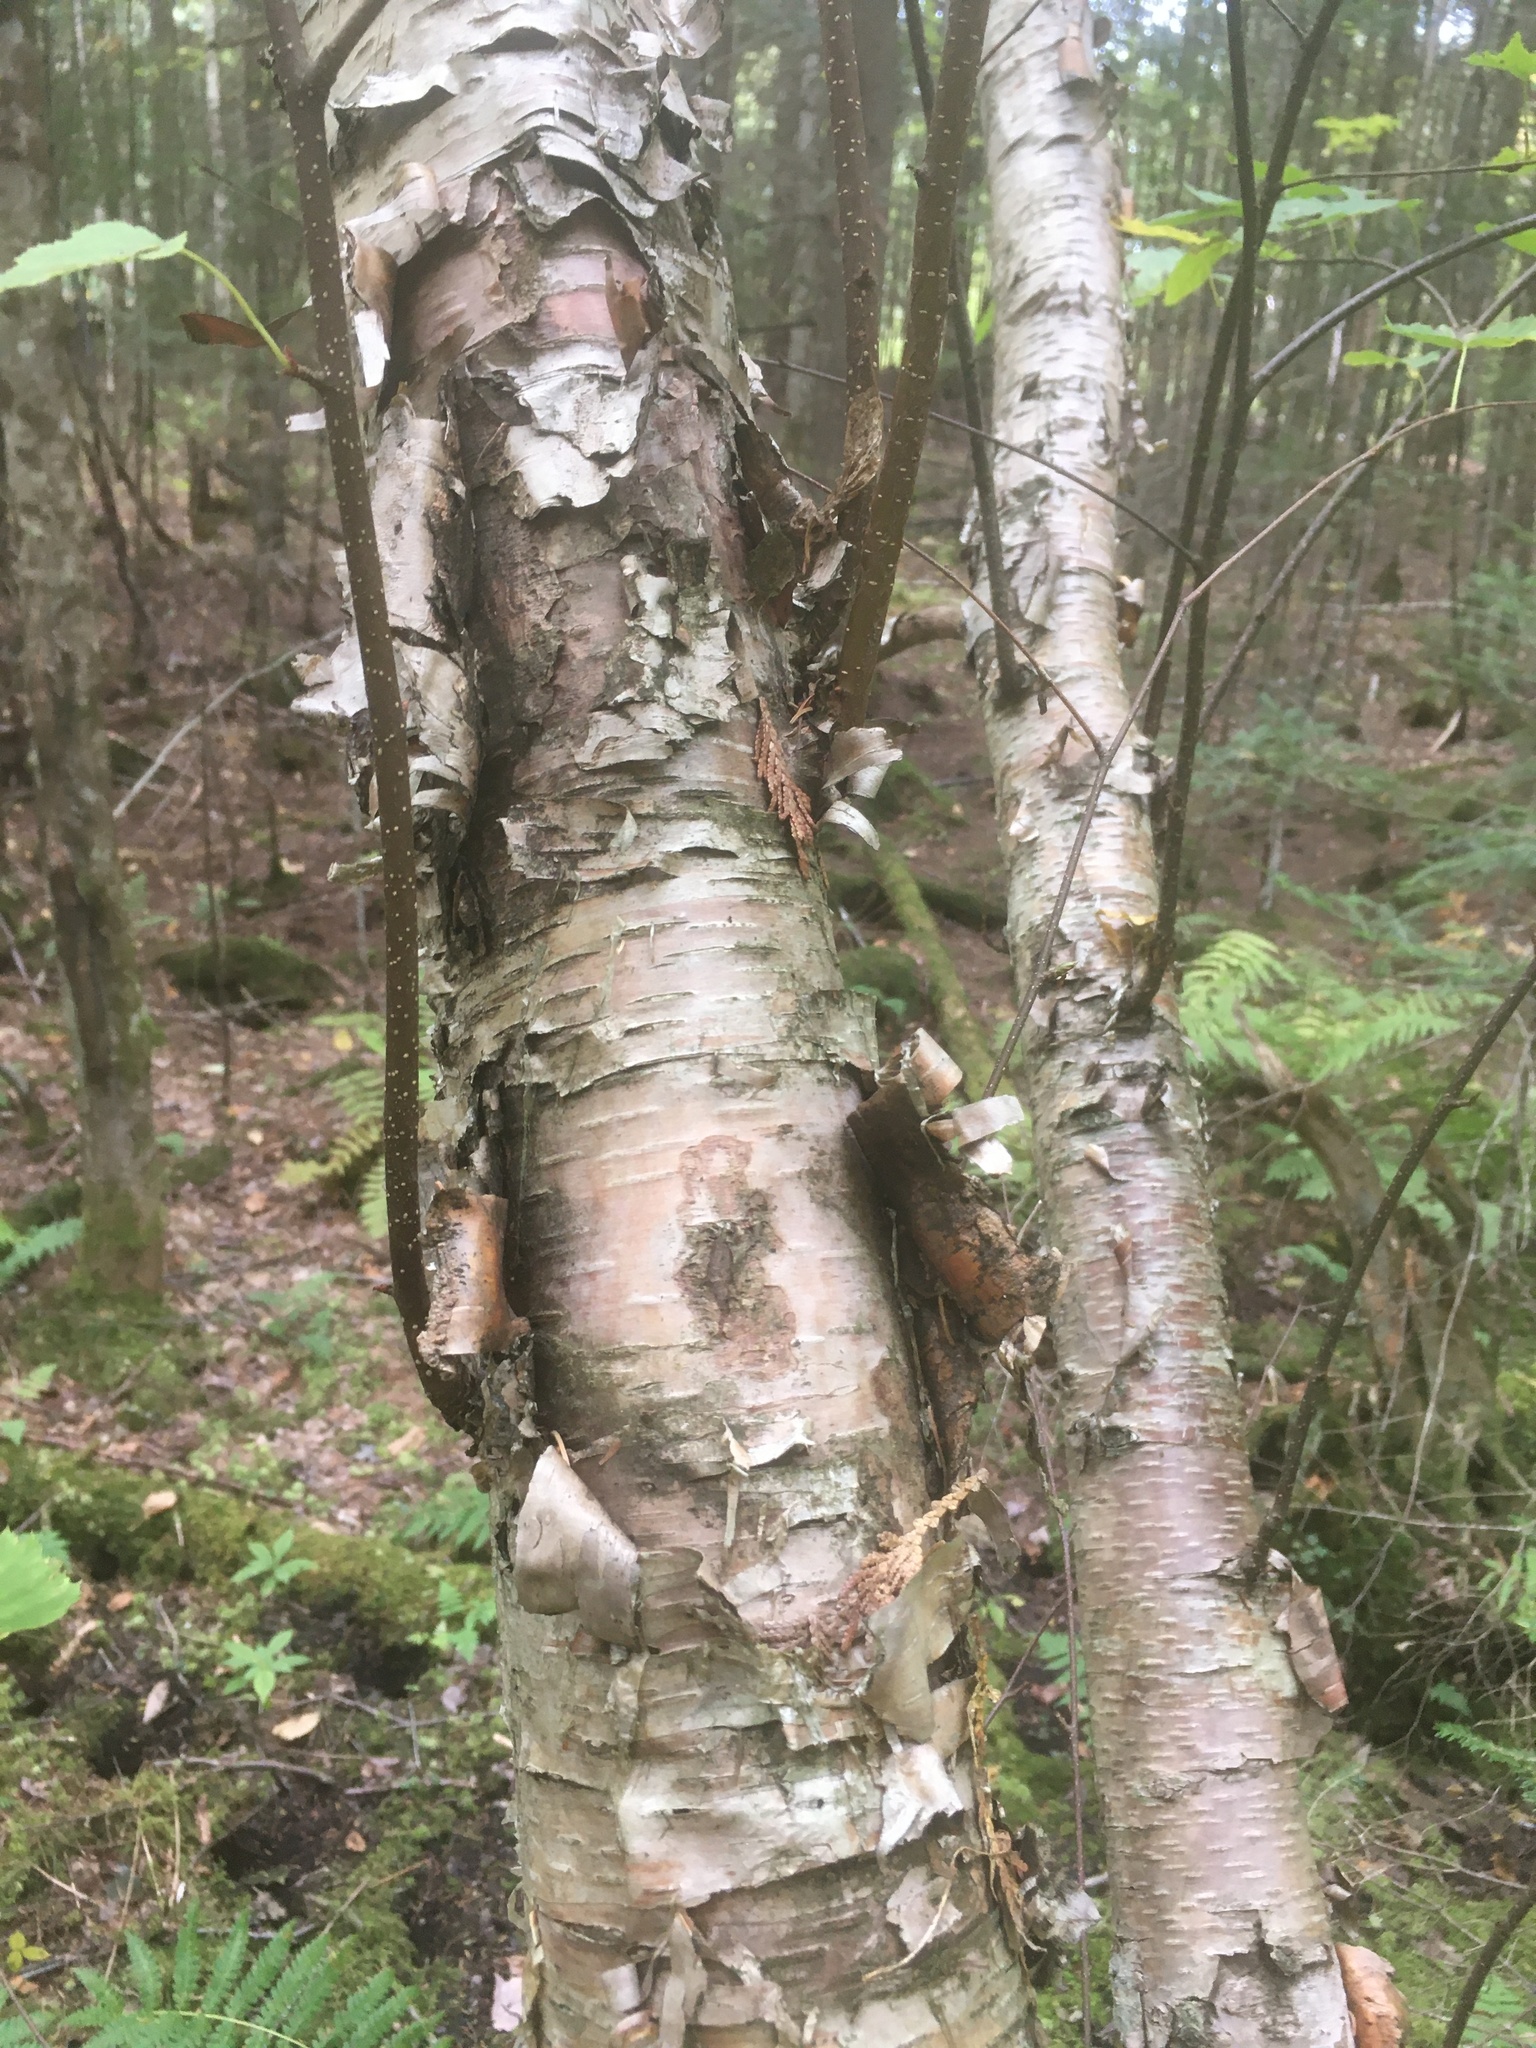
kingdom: Plantae
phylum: Tracheophyta
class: Magnoliopsida
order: Fagales
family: Betulaceae
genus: Betula
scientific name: Betula cordifolia
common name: Mountain white birch
